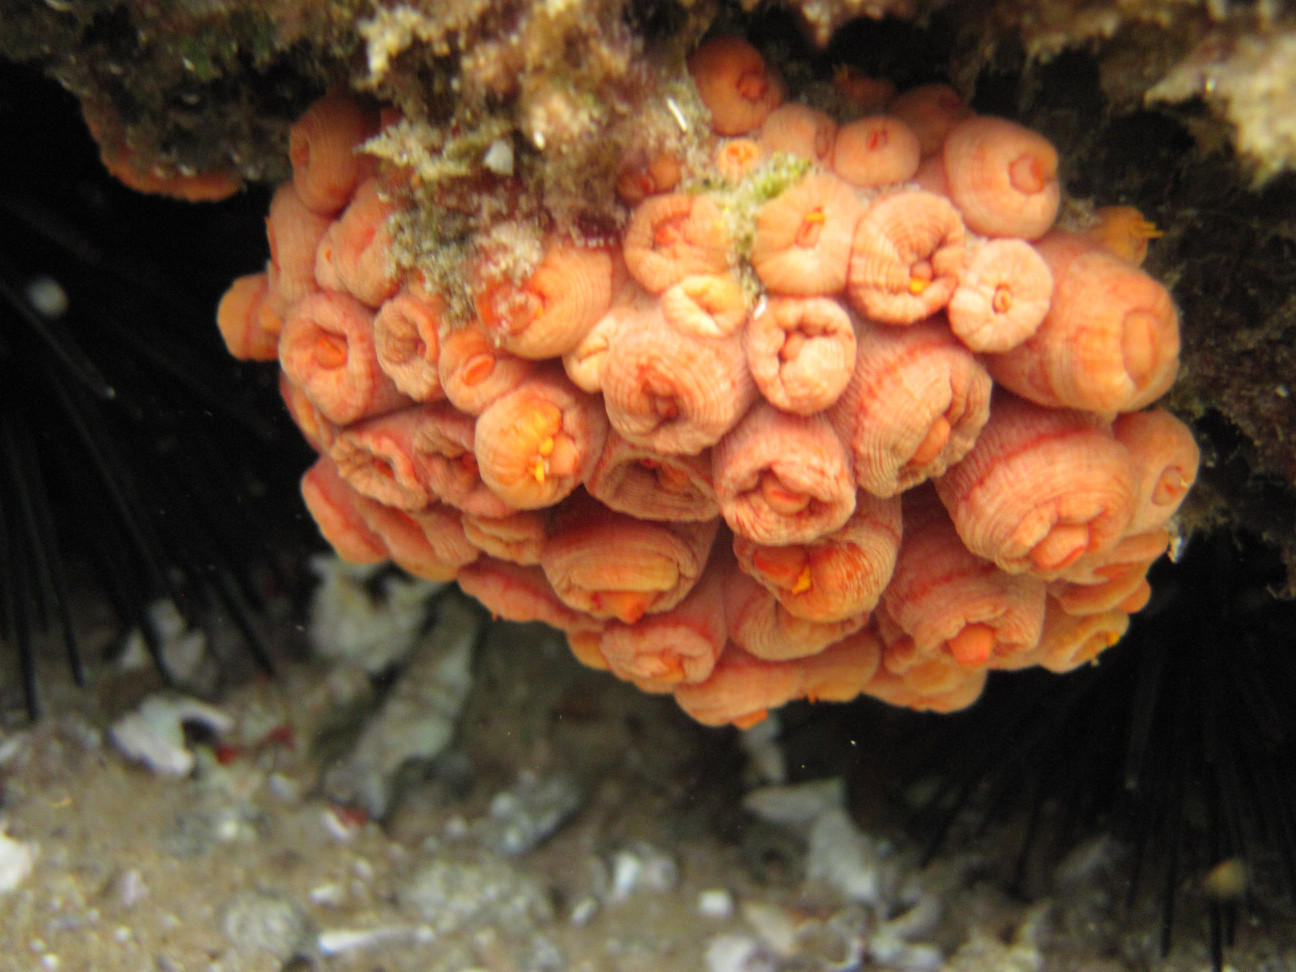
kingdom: Animalia
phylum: Cnidaria
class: Anthozoa
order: Scleractinia
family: Dendrophylliidae
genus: Tubastraea
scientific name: Tubastraea coccinea
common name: Orange cup coral
